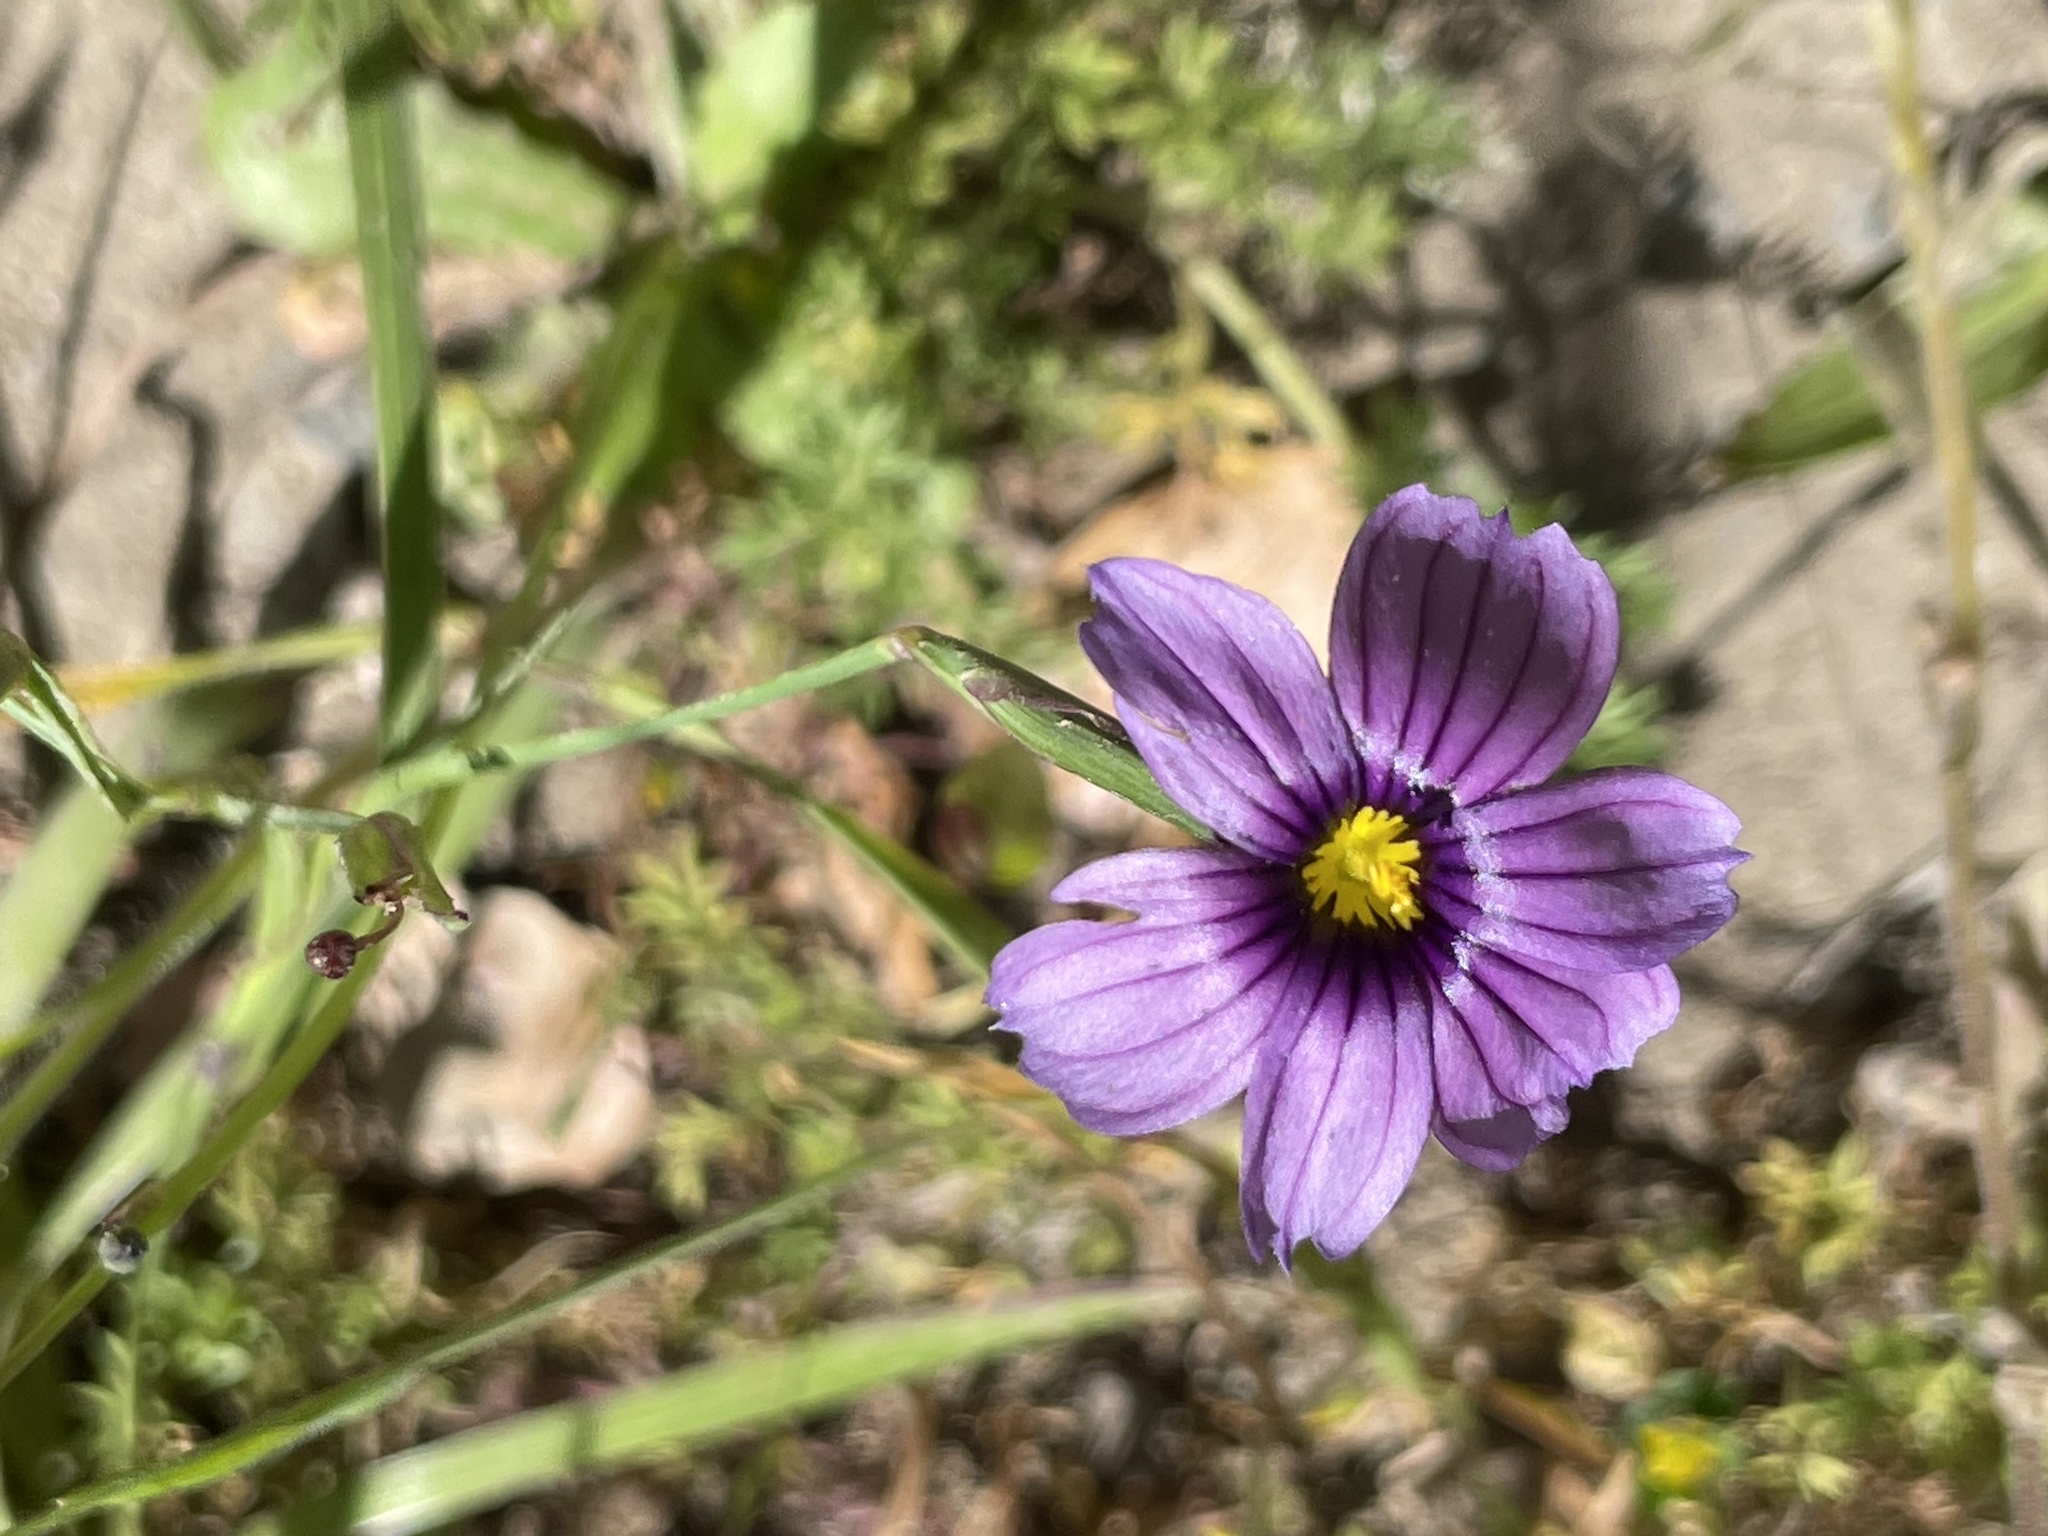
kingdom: Plantae
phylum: Tracheophyta
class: Liliopsida
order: Asparagales
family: Iridaceae
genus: Sisyrinchium
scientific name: Sisyrinchium bellum
